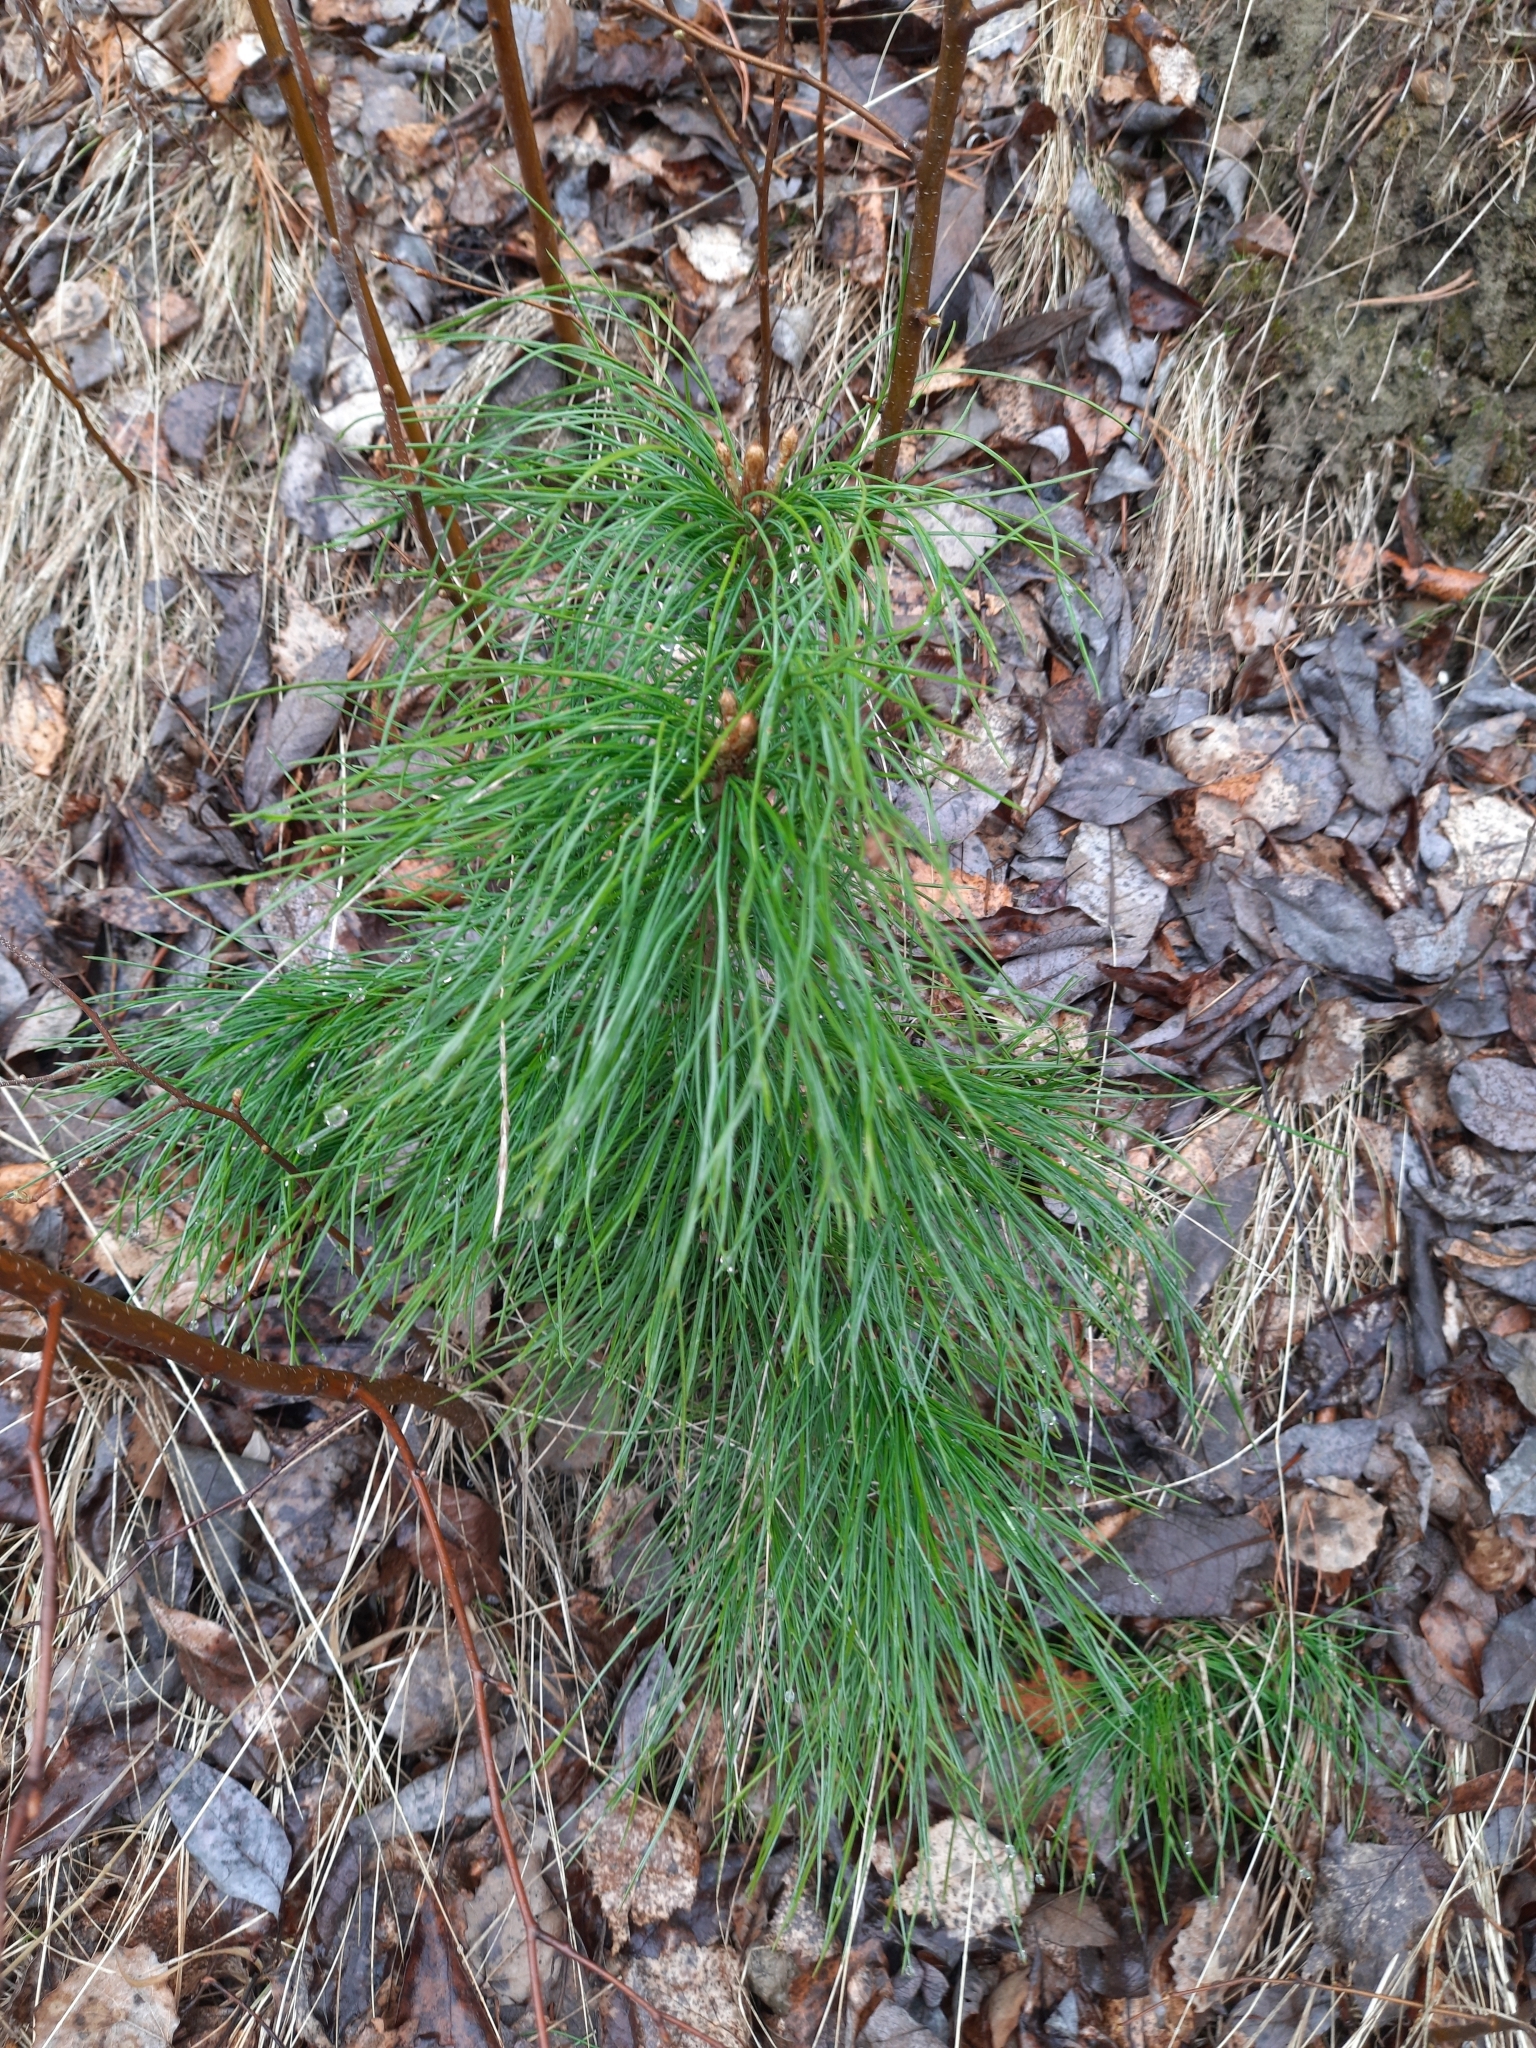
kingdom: Plantae
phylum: Tracheophyta
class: Pinopsida
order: Pinales
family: Pinaceae
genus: Pinus
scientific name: Pinus sibirica
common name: Siberian pine
